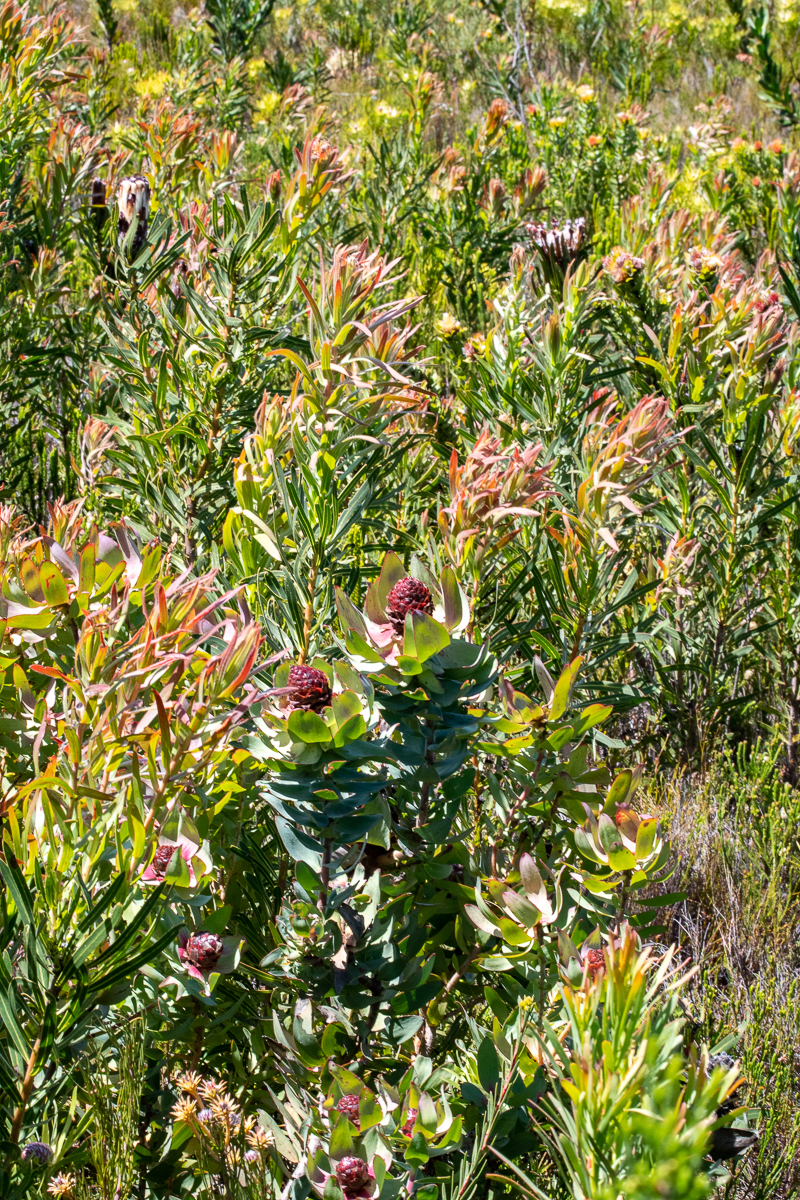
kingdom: Plantae
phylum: Tracheophyta
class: Magnoliopsida
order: Proteales
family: Proteaceae
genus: Leucadendron
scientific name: Leucadendron tinctum
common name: Spicy conebush
